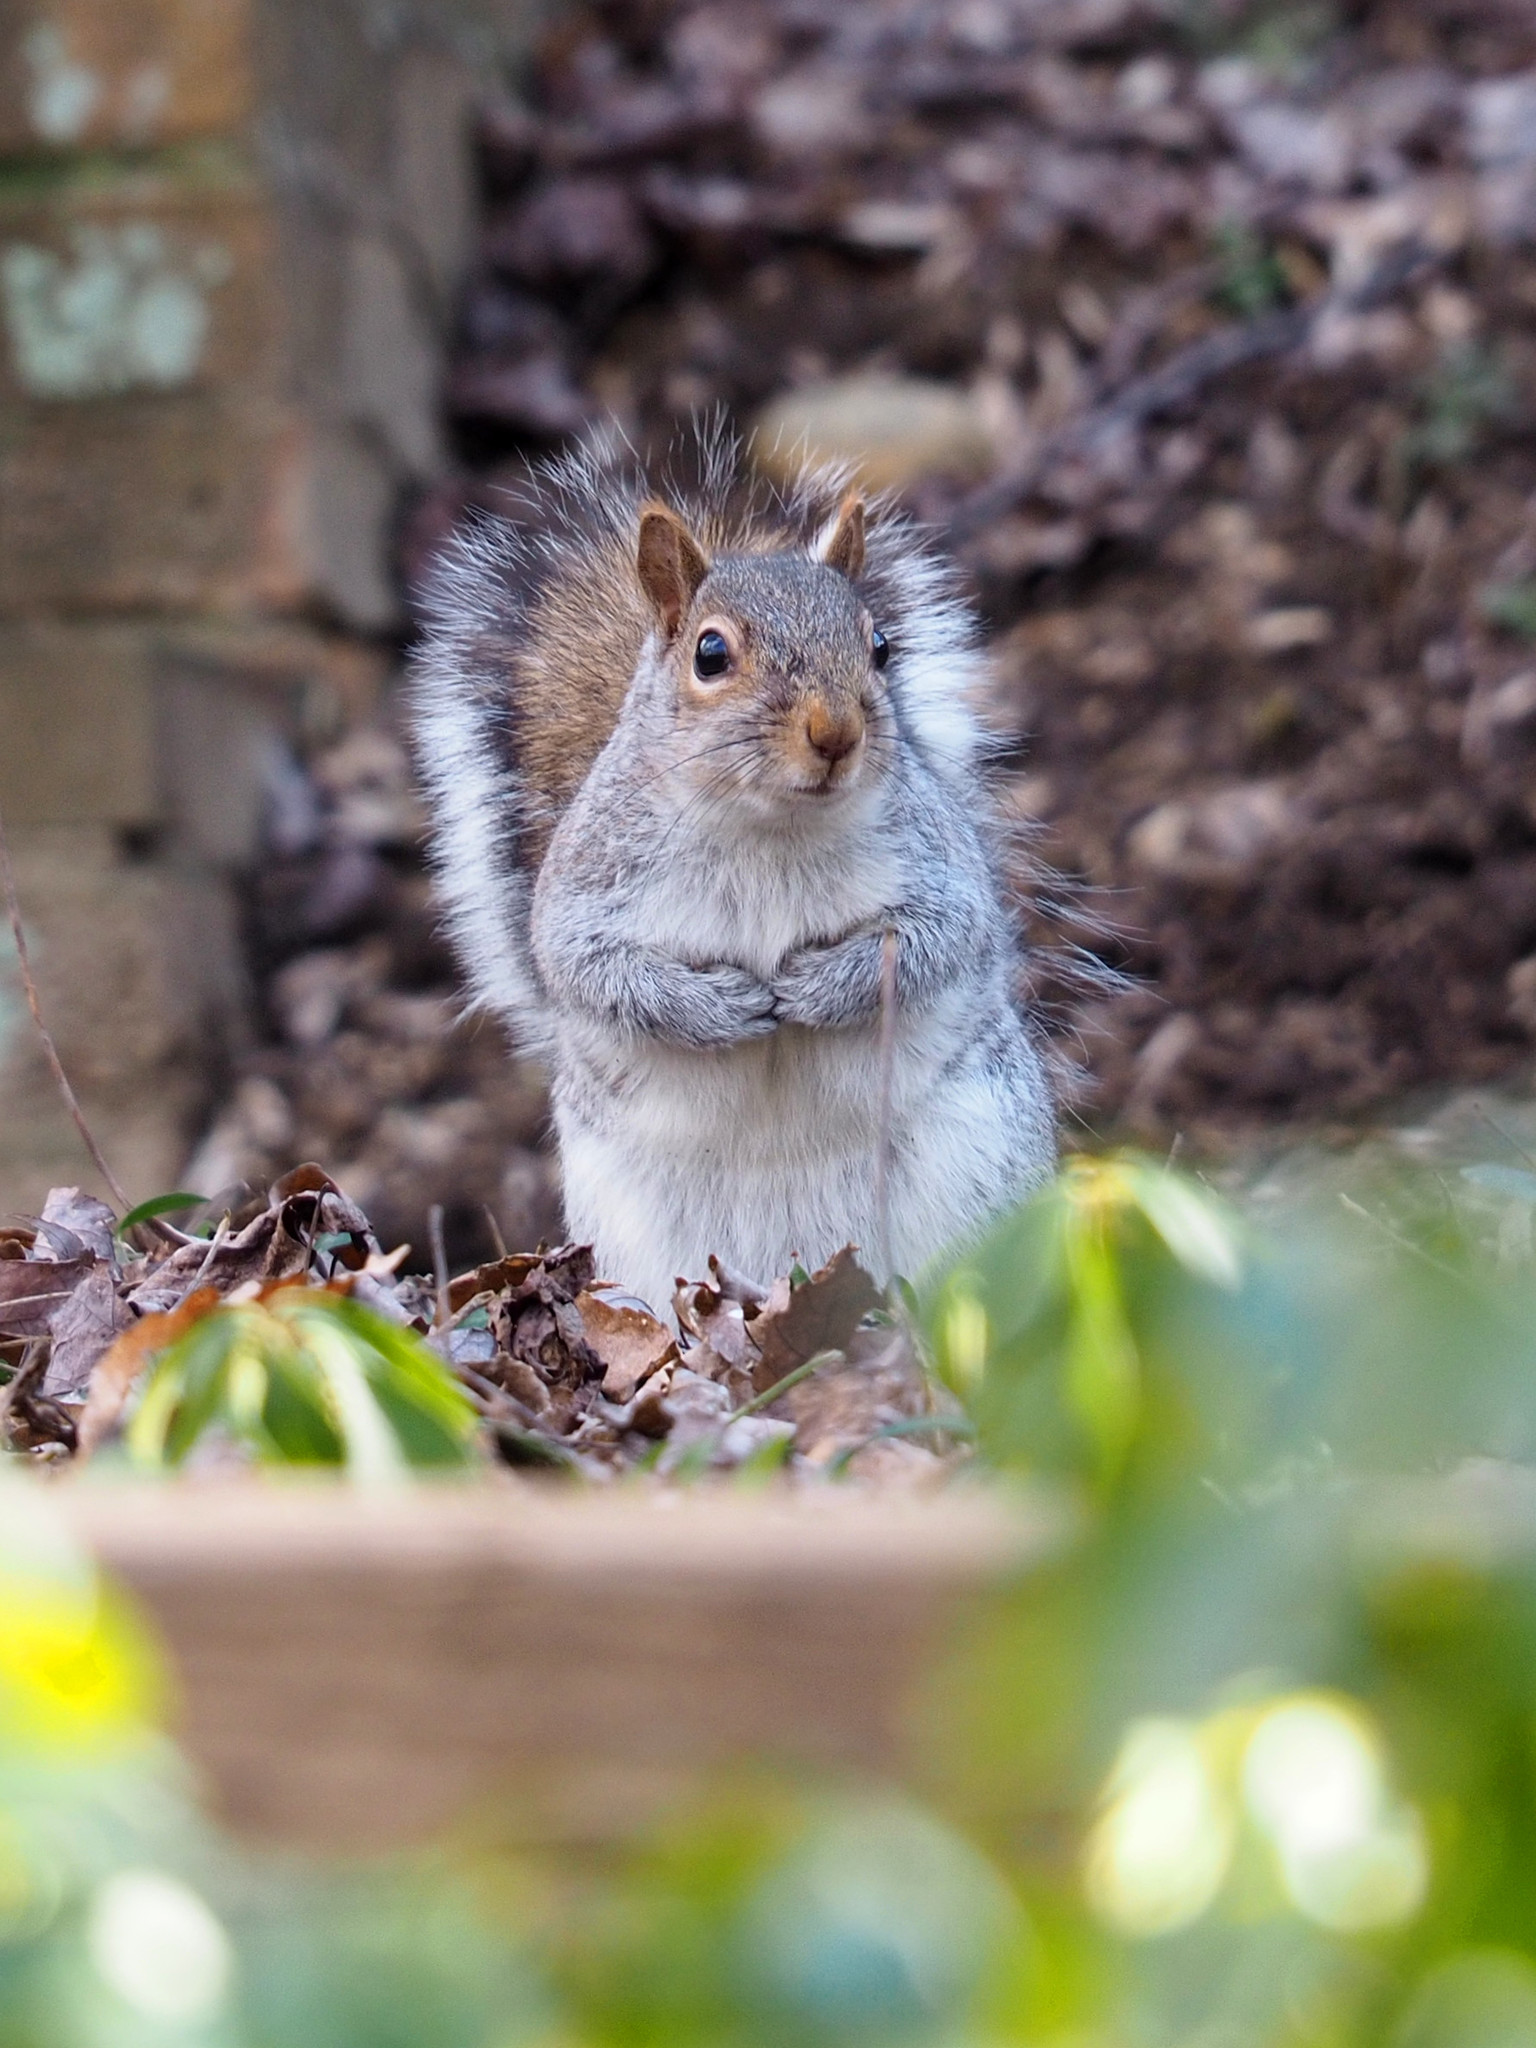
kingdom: Animalia
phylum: Chordata
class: Mammalia
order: Rodentia
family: Sciuridae
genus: Sciurus
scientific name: Sciurus carolinensis
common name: Eastern gray squirrel
